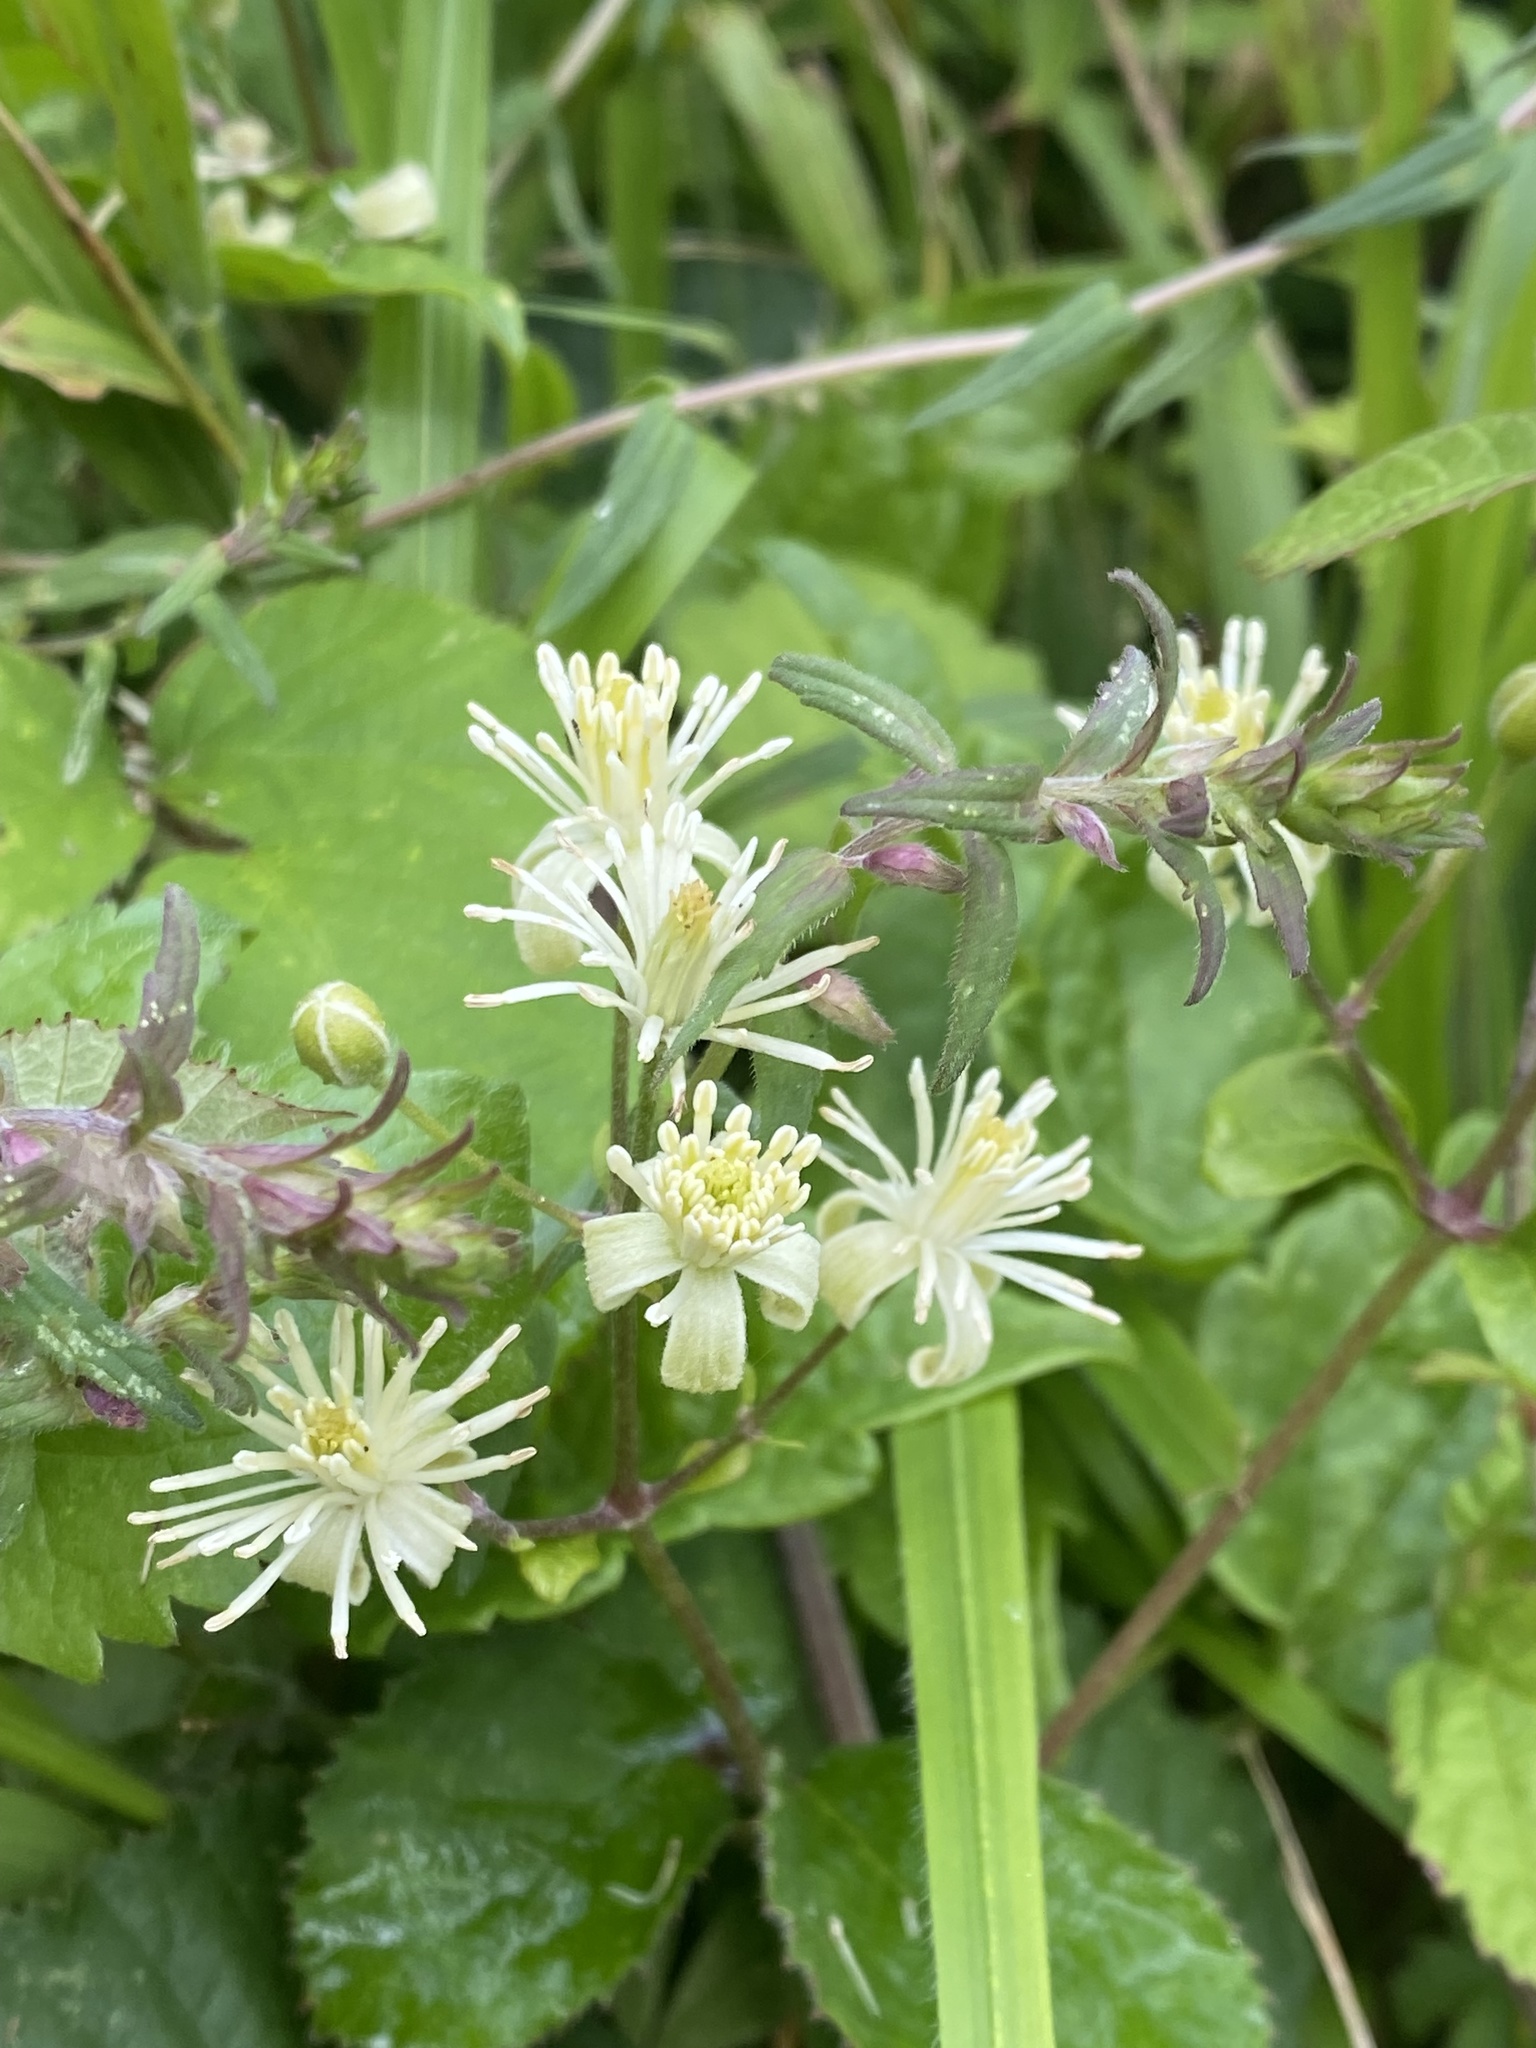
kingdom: Plantae
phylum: Tracheophyta
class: Magnoliopsida
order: Ranunculales
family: Ranunculaceae
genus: Clematis
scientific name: Clematis vitalba
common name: Evergreen clematis
